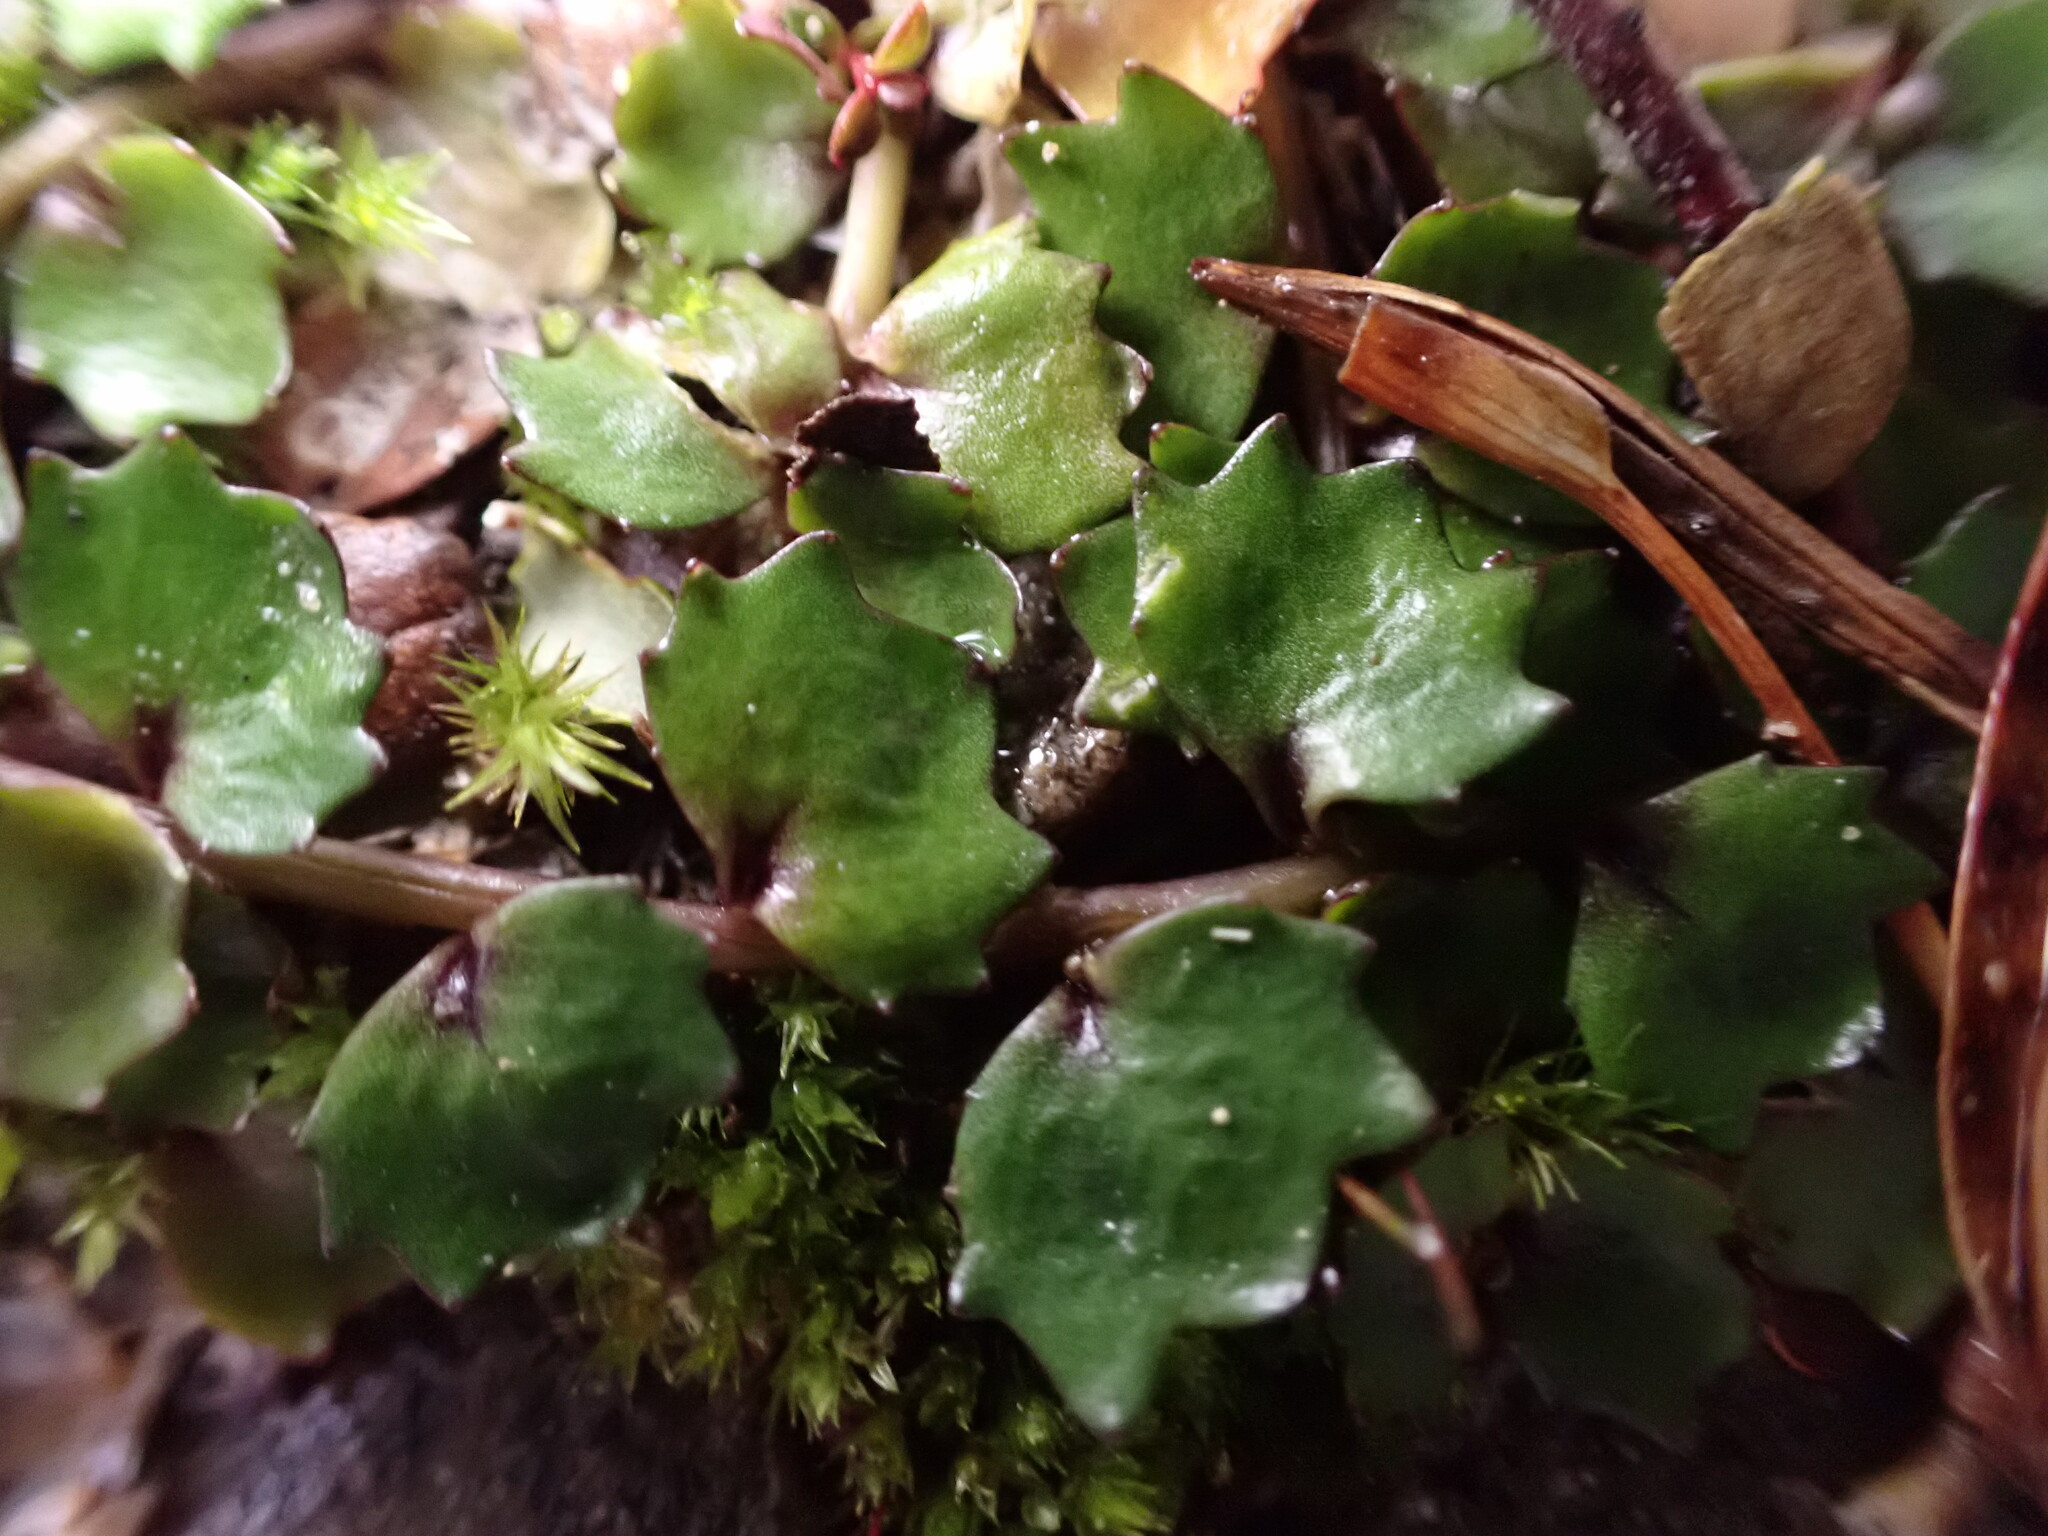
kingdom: Plantae
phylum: Tracheophyta
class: Magnoliopsida
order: Asterales
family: Campanulaceae
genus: Lobelia
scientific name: Lobelia macrodon
